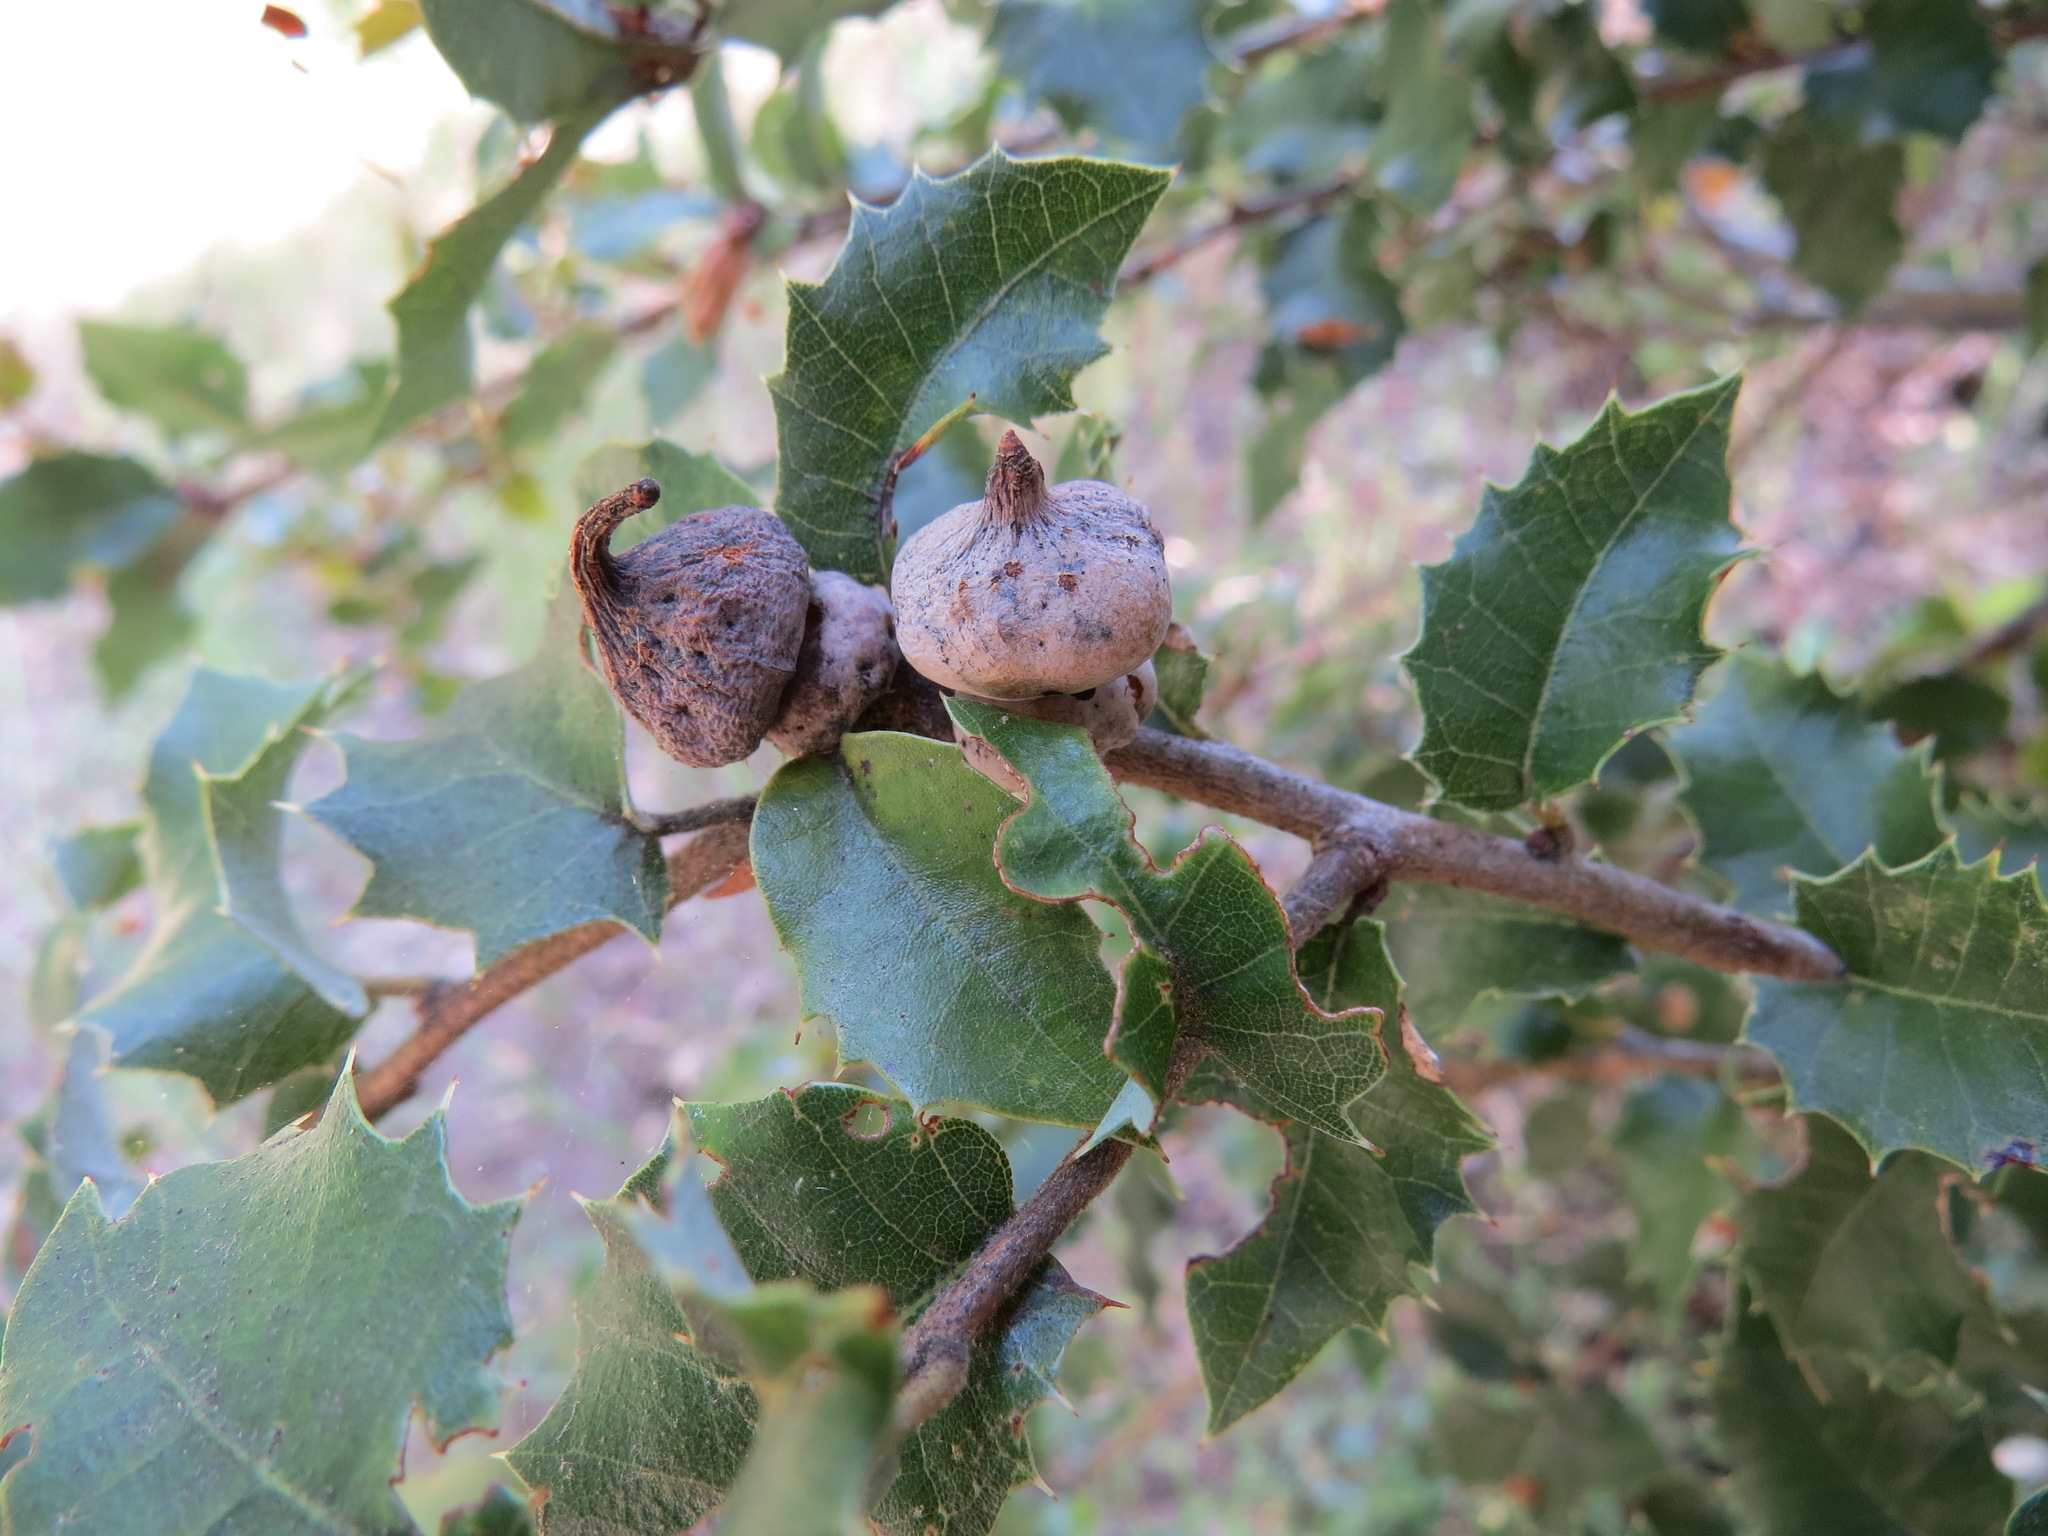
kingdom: Animalia
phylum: Arthropoda
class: Insecta
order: Hymenoptera
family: Cynipidae
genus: Heteroecus
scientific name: Heteroecus
